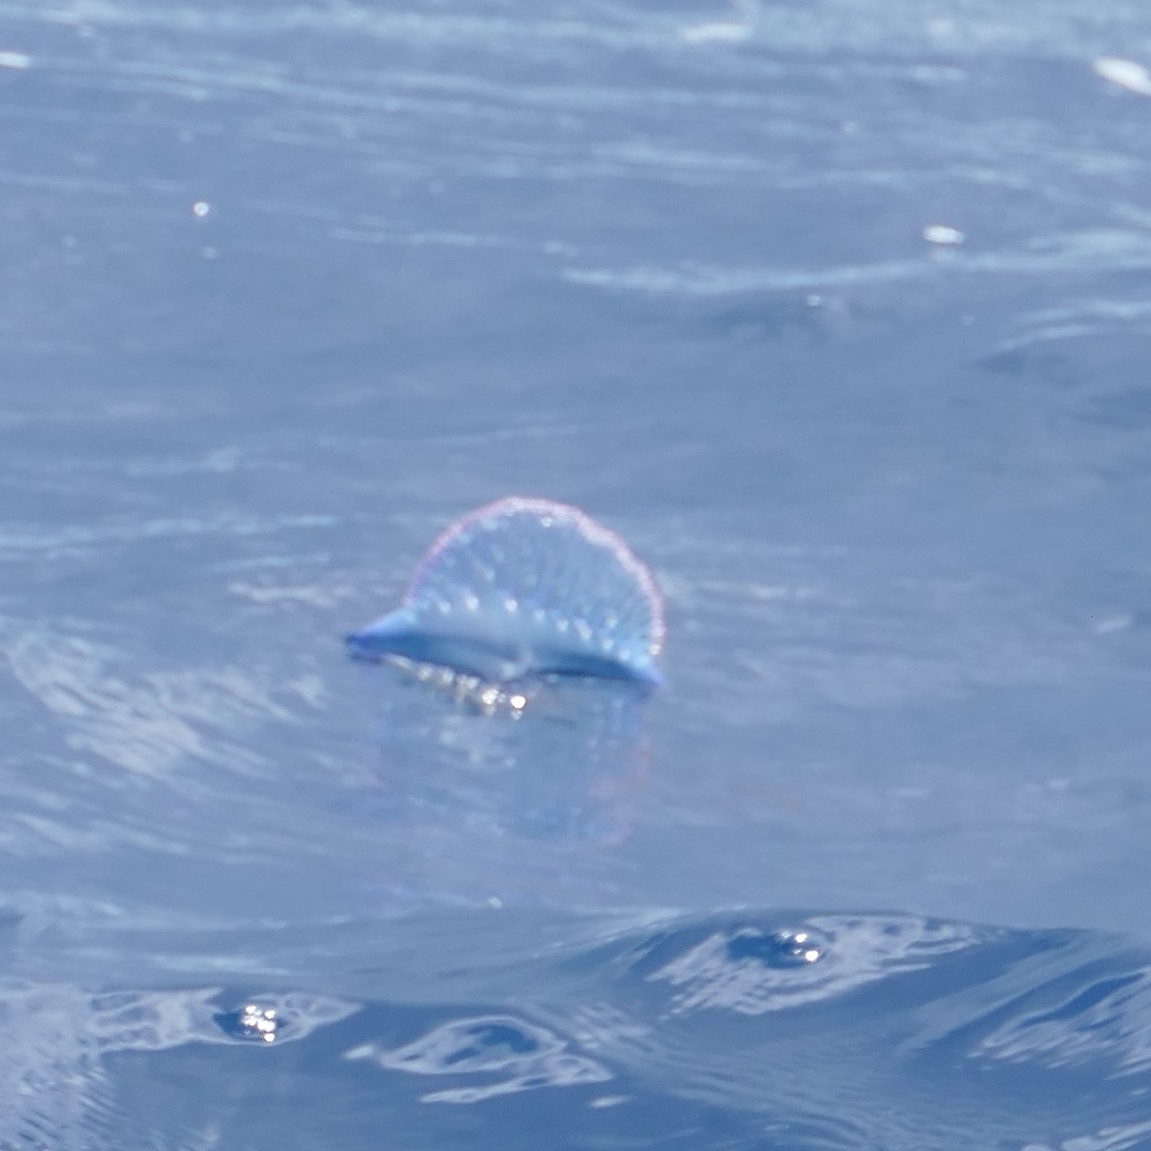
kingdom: Animalia
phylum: Cnidaria
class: Hydrozoa
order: Siphonophorae
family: Physaliidae
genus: Physalia
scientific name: Physalia physalis
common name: Portuguese man-of-war
